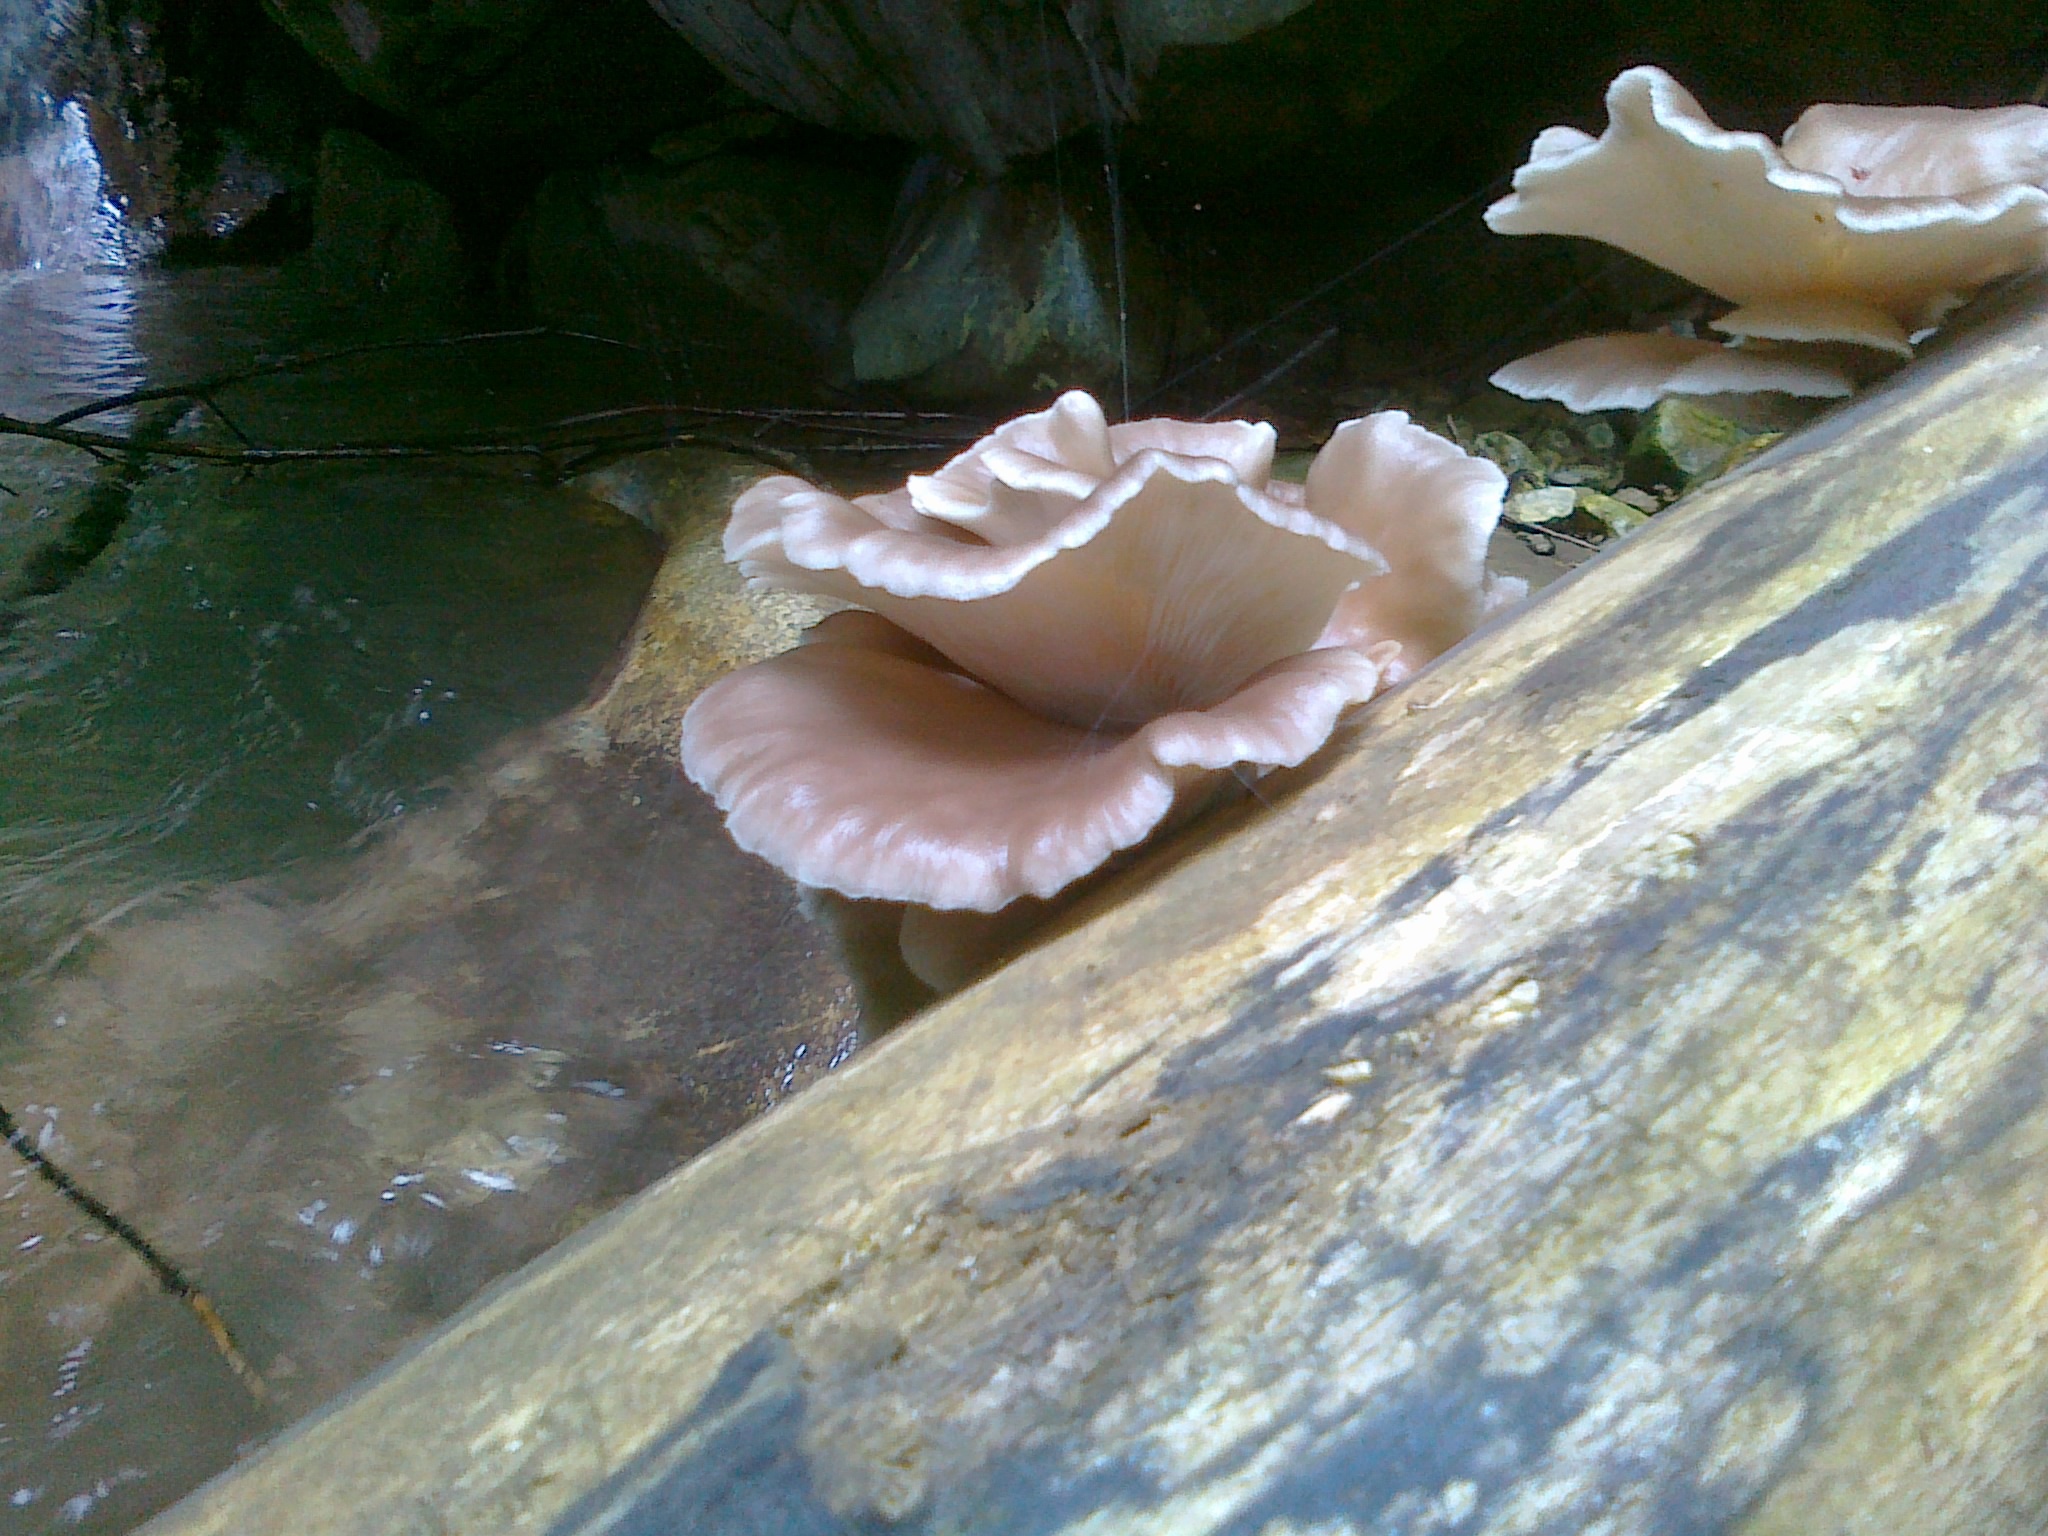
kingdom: Fungi
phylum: Basidiomycota
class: Agaricomycetes
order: Agaricales
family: Pleurotaceae
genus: Pleurotus
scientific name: Pleurotus pulmonarius
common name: Pale oyster
